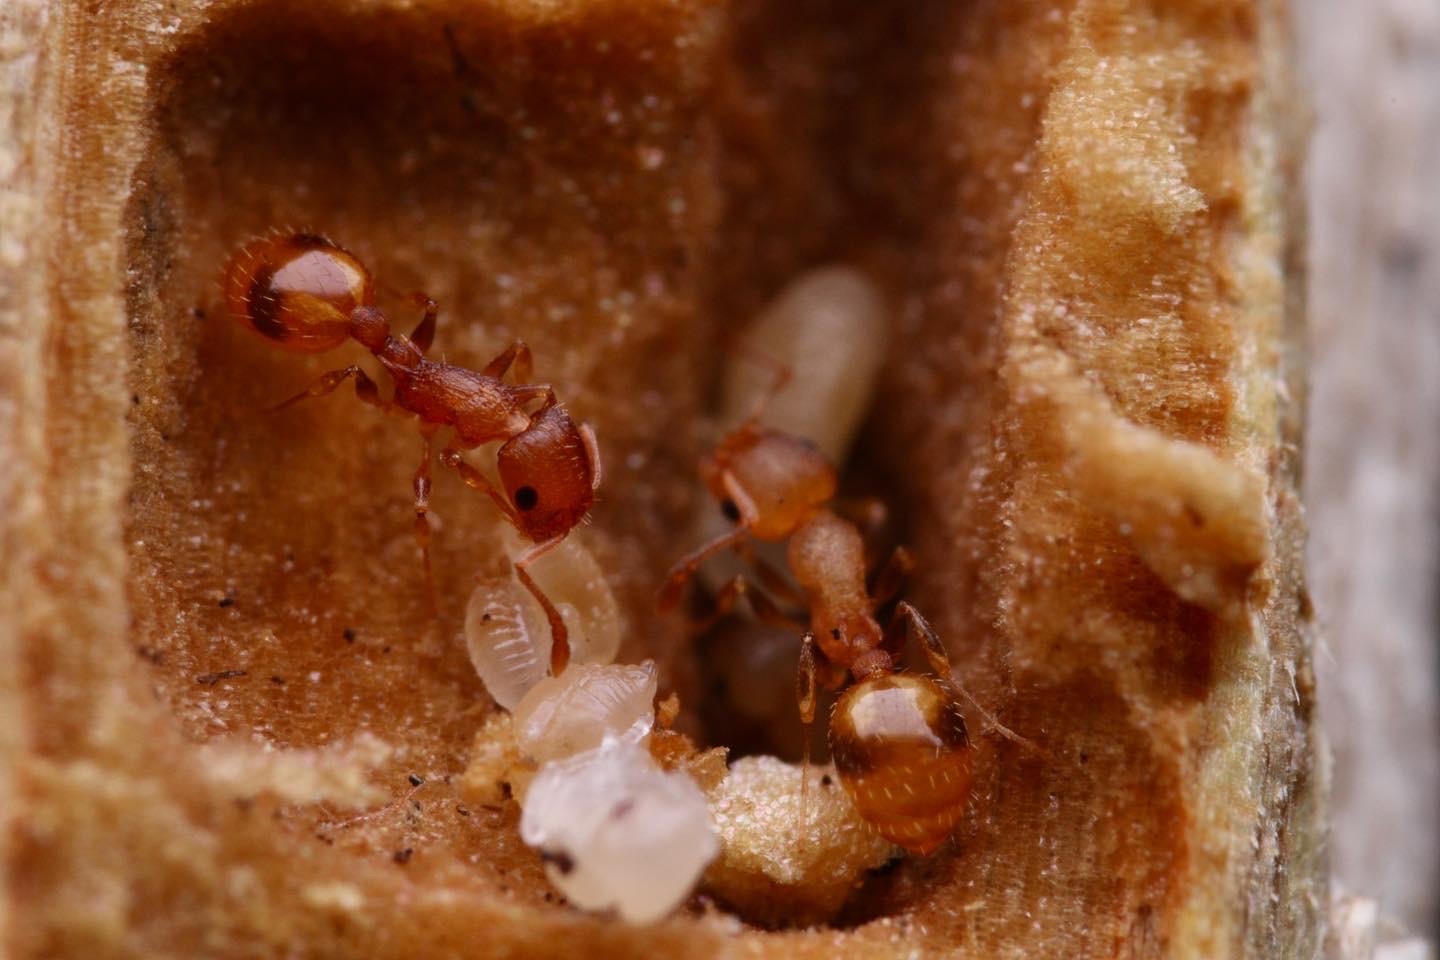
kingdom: Animalia
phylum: Arthropoda
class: Insecta
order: Hymenoptera
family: Formicidae
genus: Temnothorax
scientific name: Temnothorax curvispinosus
